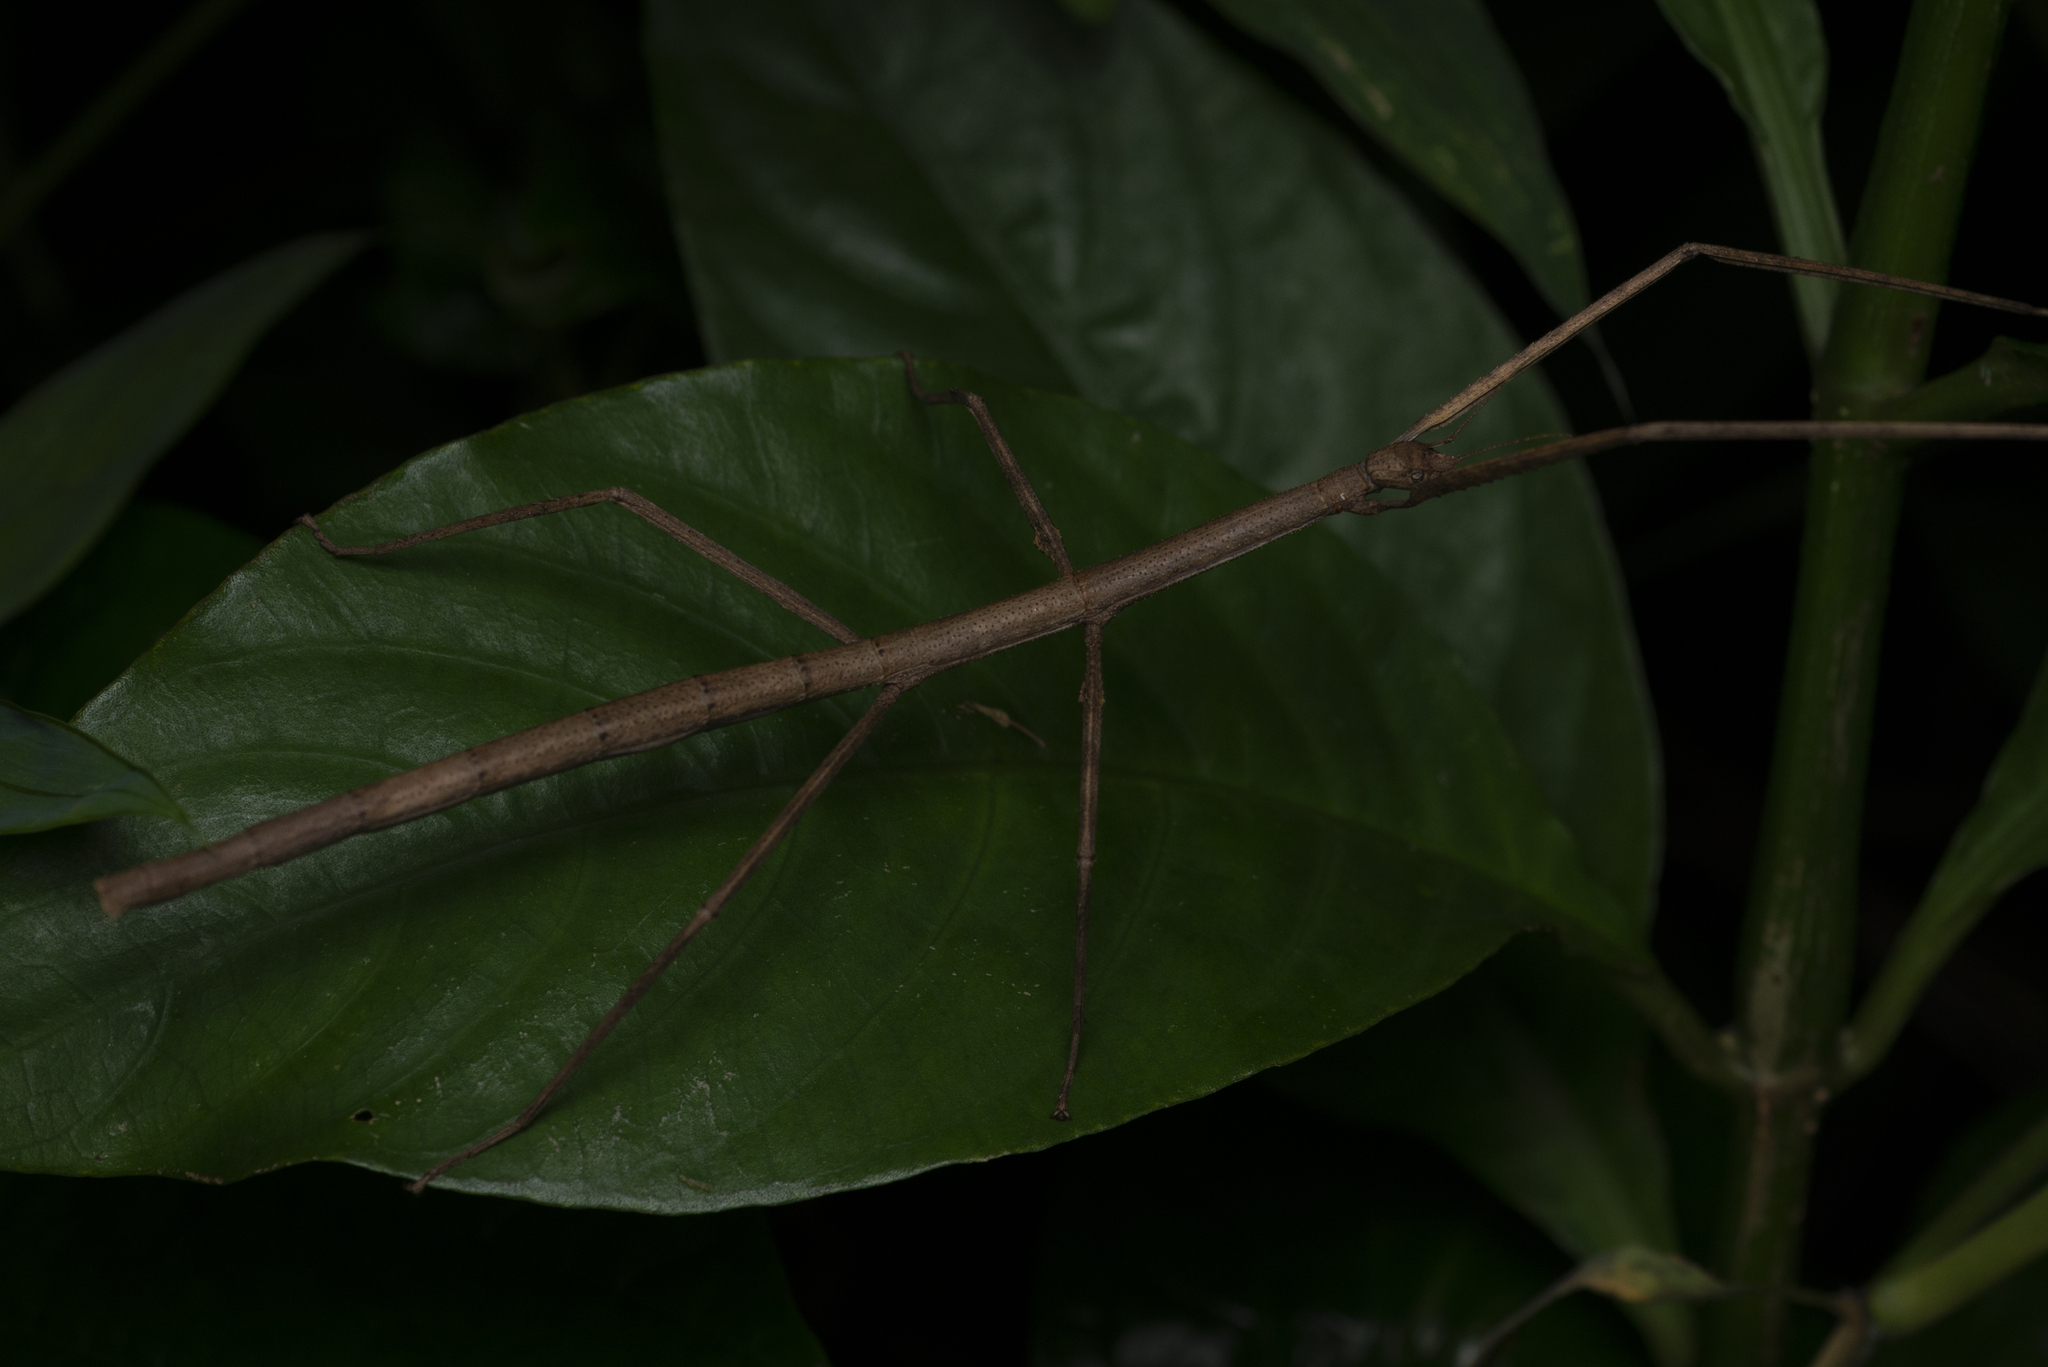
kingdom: Animalia
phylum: Arthropoda
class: Insecta
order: Phasmida
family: Phasmatidae
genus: Ramulus
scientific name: Ramulus rotundus
